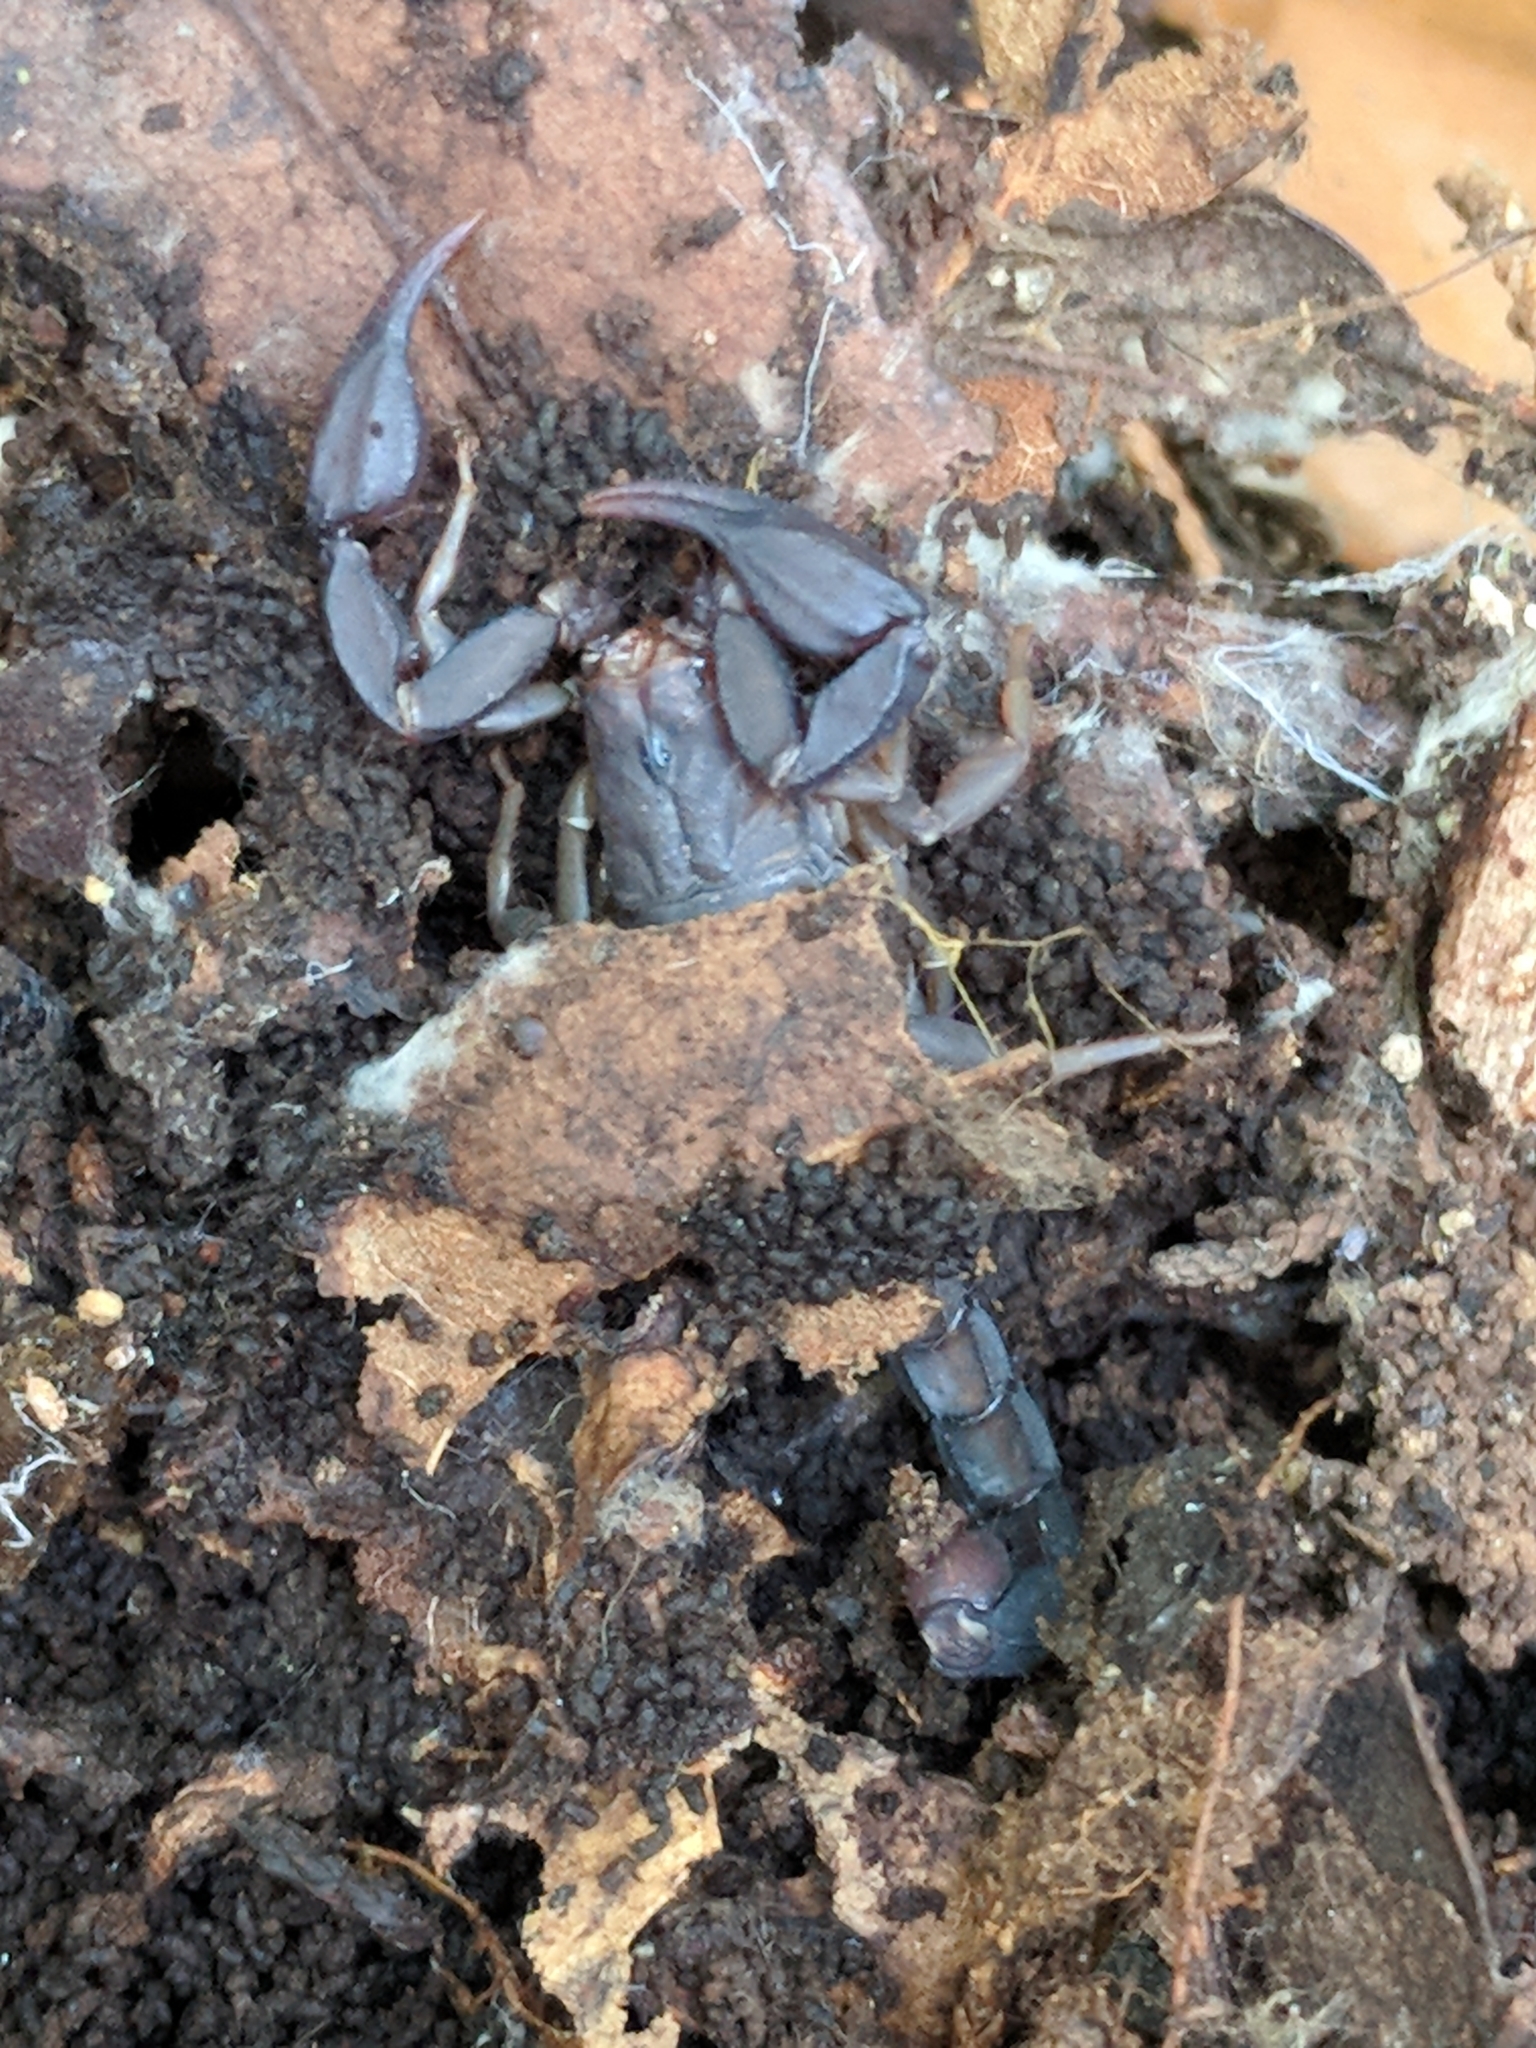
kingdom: Animalia
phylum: Arthropoda
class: Arachnida
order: Scorpiones
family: Vaejovidae
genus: Pseudouroctonus
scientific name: Pseudouroctonus reddelli
